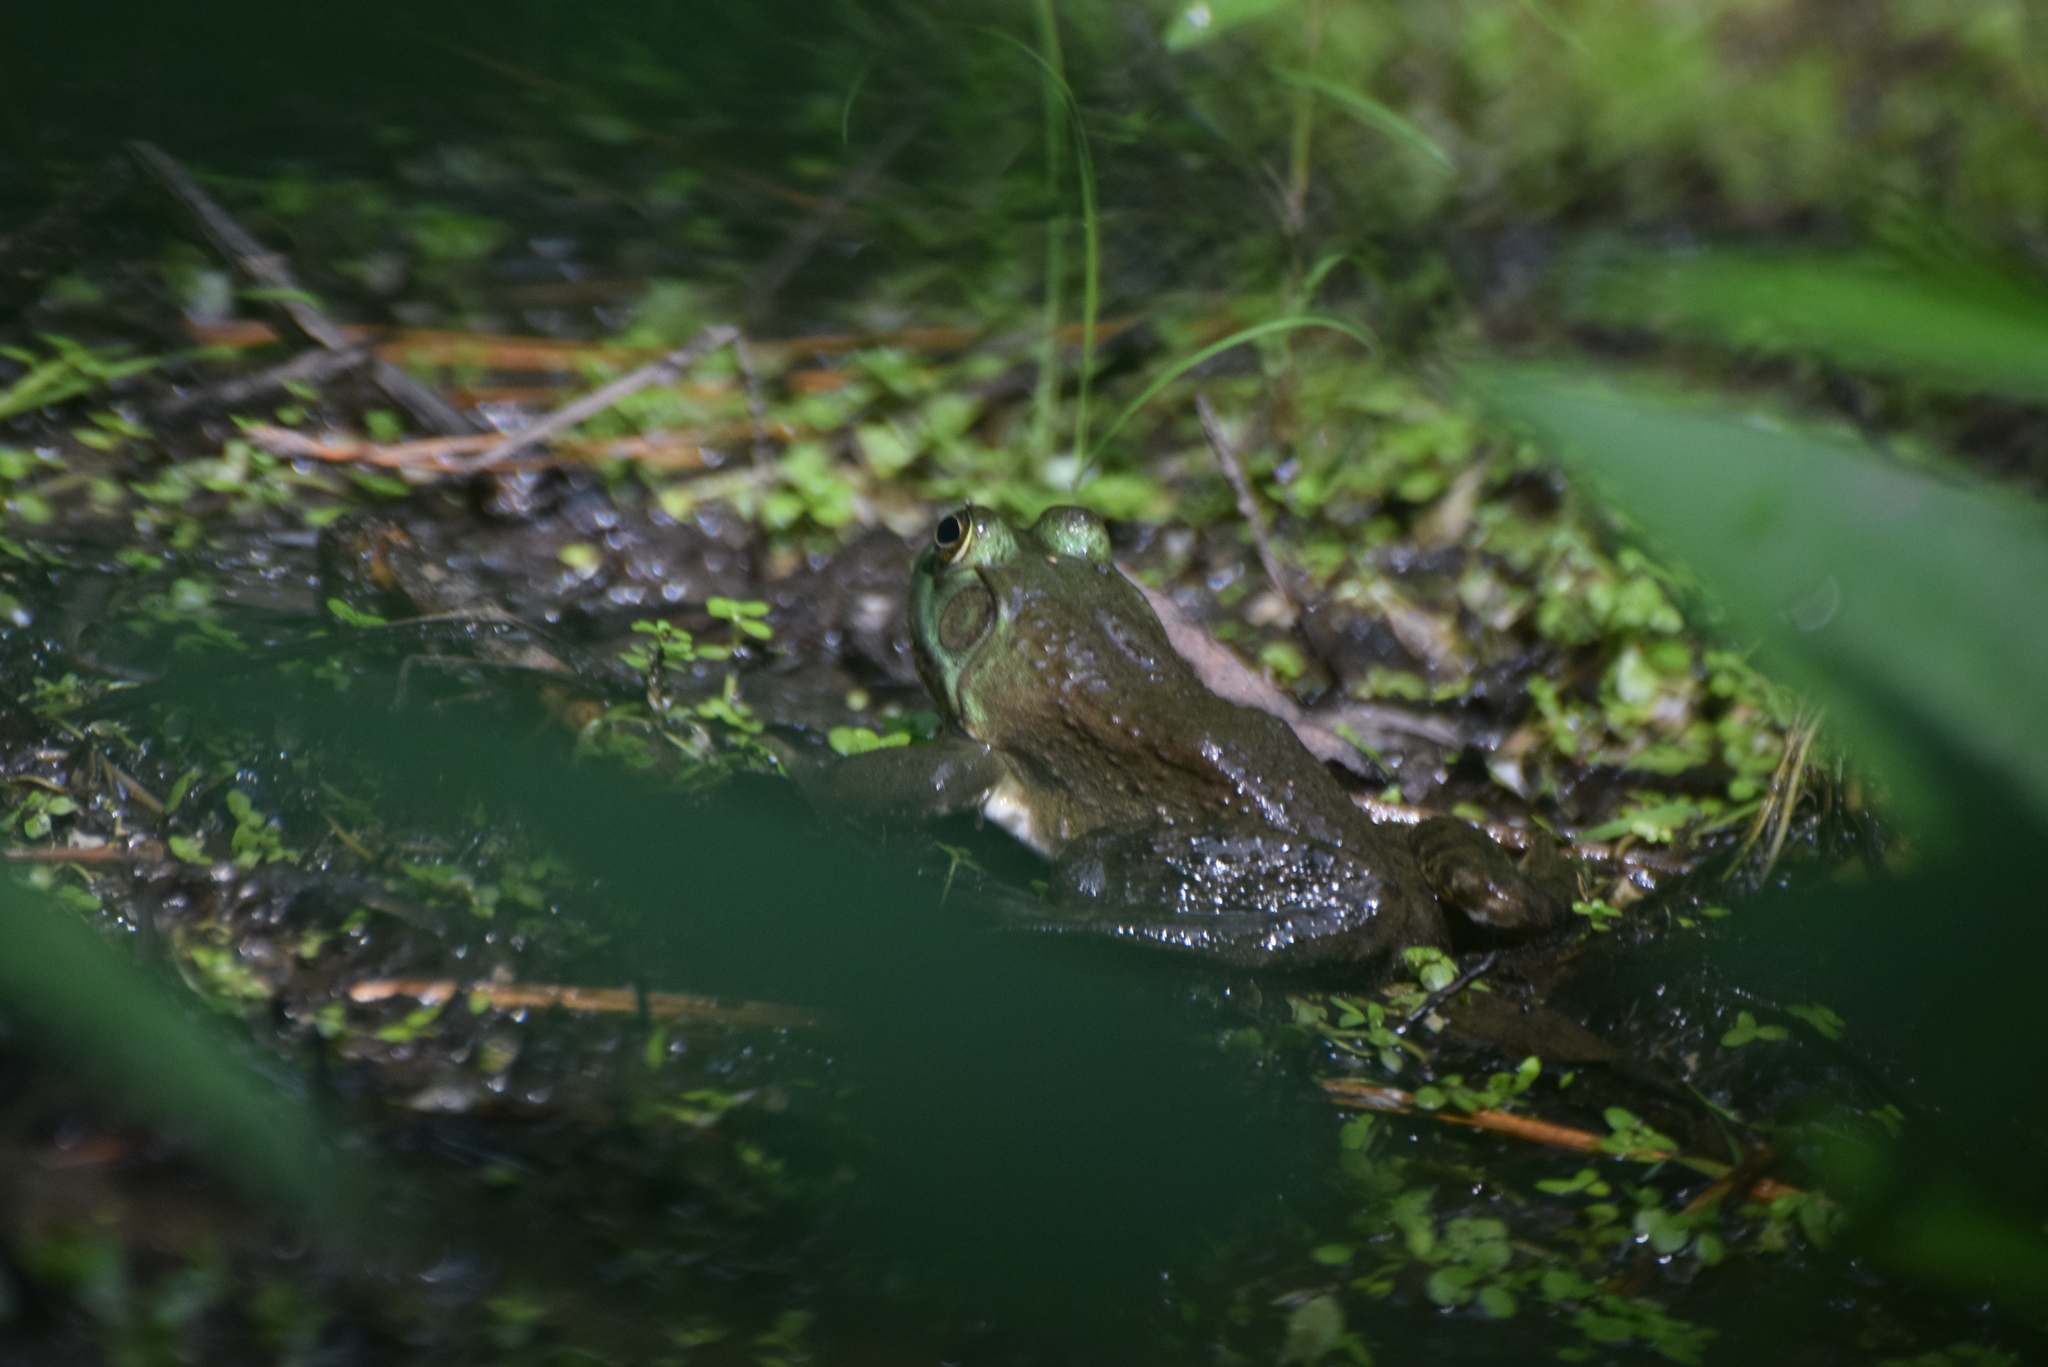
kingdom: Animalia
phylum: Chordata
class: Amphibia
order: Anura
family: Ranidae
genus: Lithobates
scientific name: Lithobates catesbeianus
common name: American bullfrog
